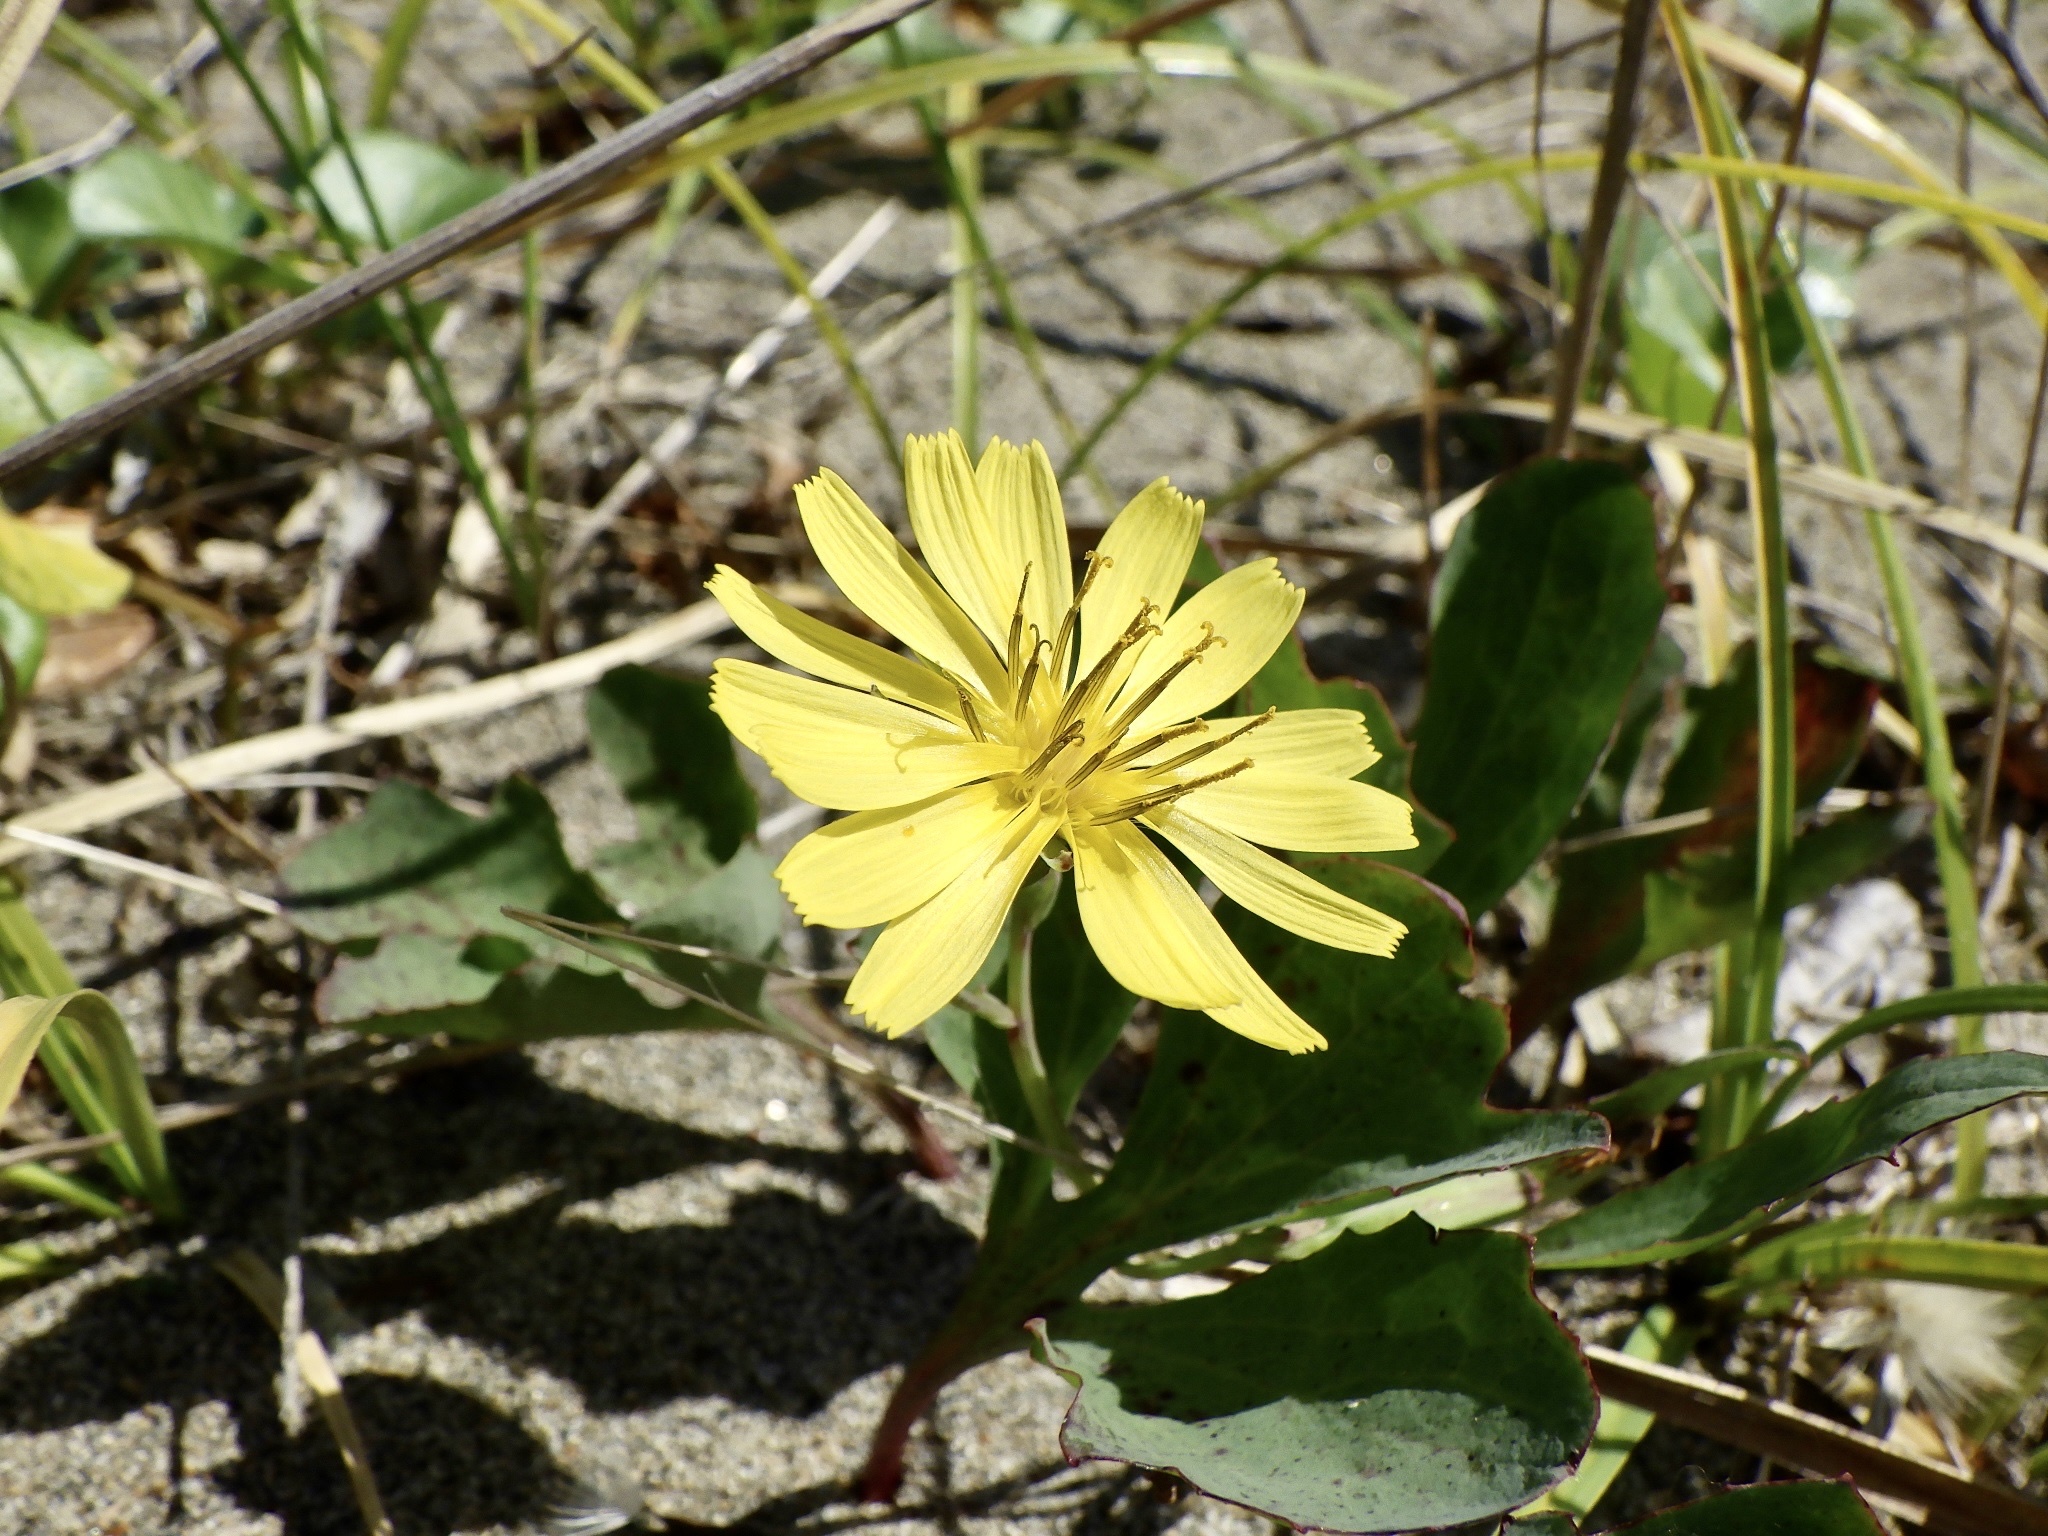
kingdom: Plantae
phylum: Tracheophyta
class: Magnoliopsida
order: Asterales
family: Asteraceae
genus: Ixeris
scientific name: Ixeris repens
